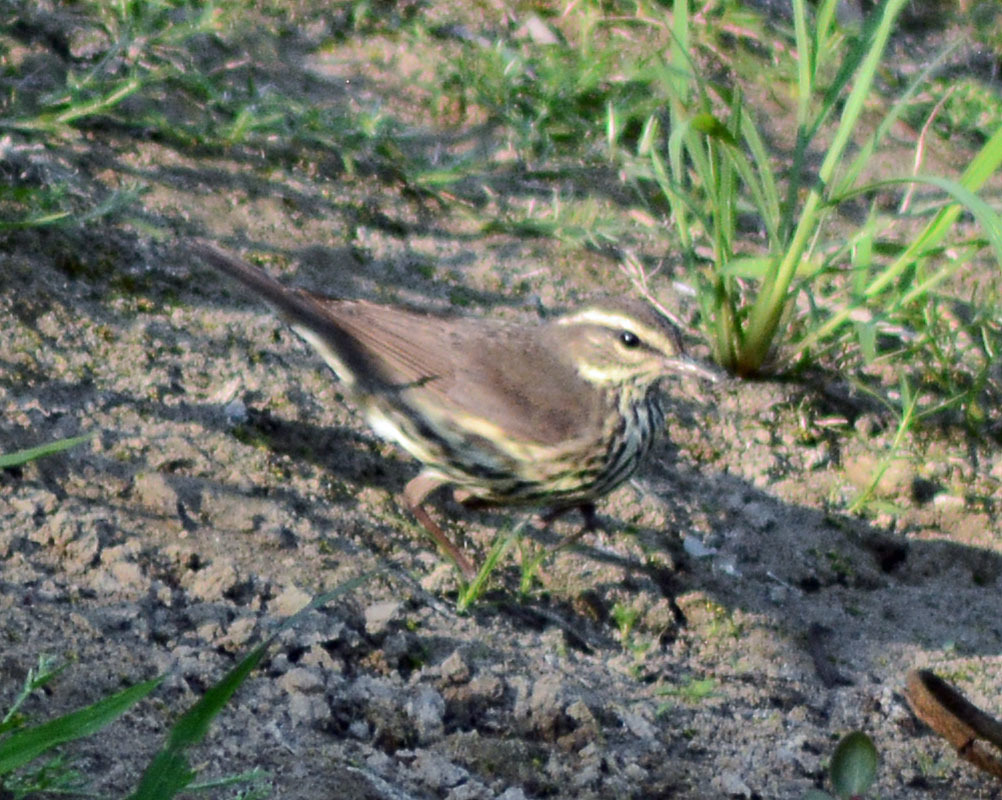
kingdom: Animalia
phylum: Chordata
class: Aves
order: Passeriformes
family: Parulidae
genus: Parkesia
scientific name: Parkesia noveboracensis
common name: Northern waterthrush
